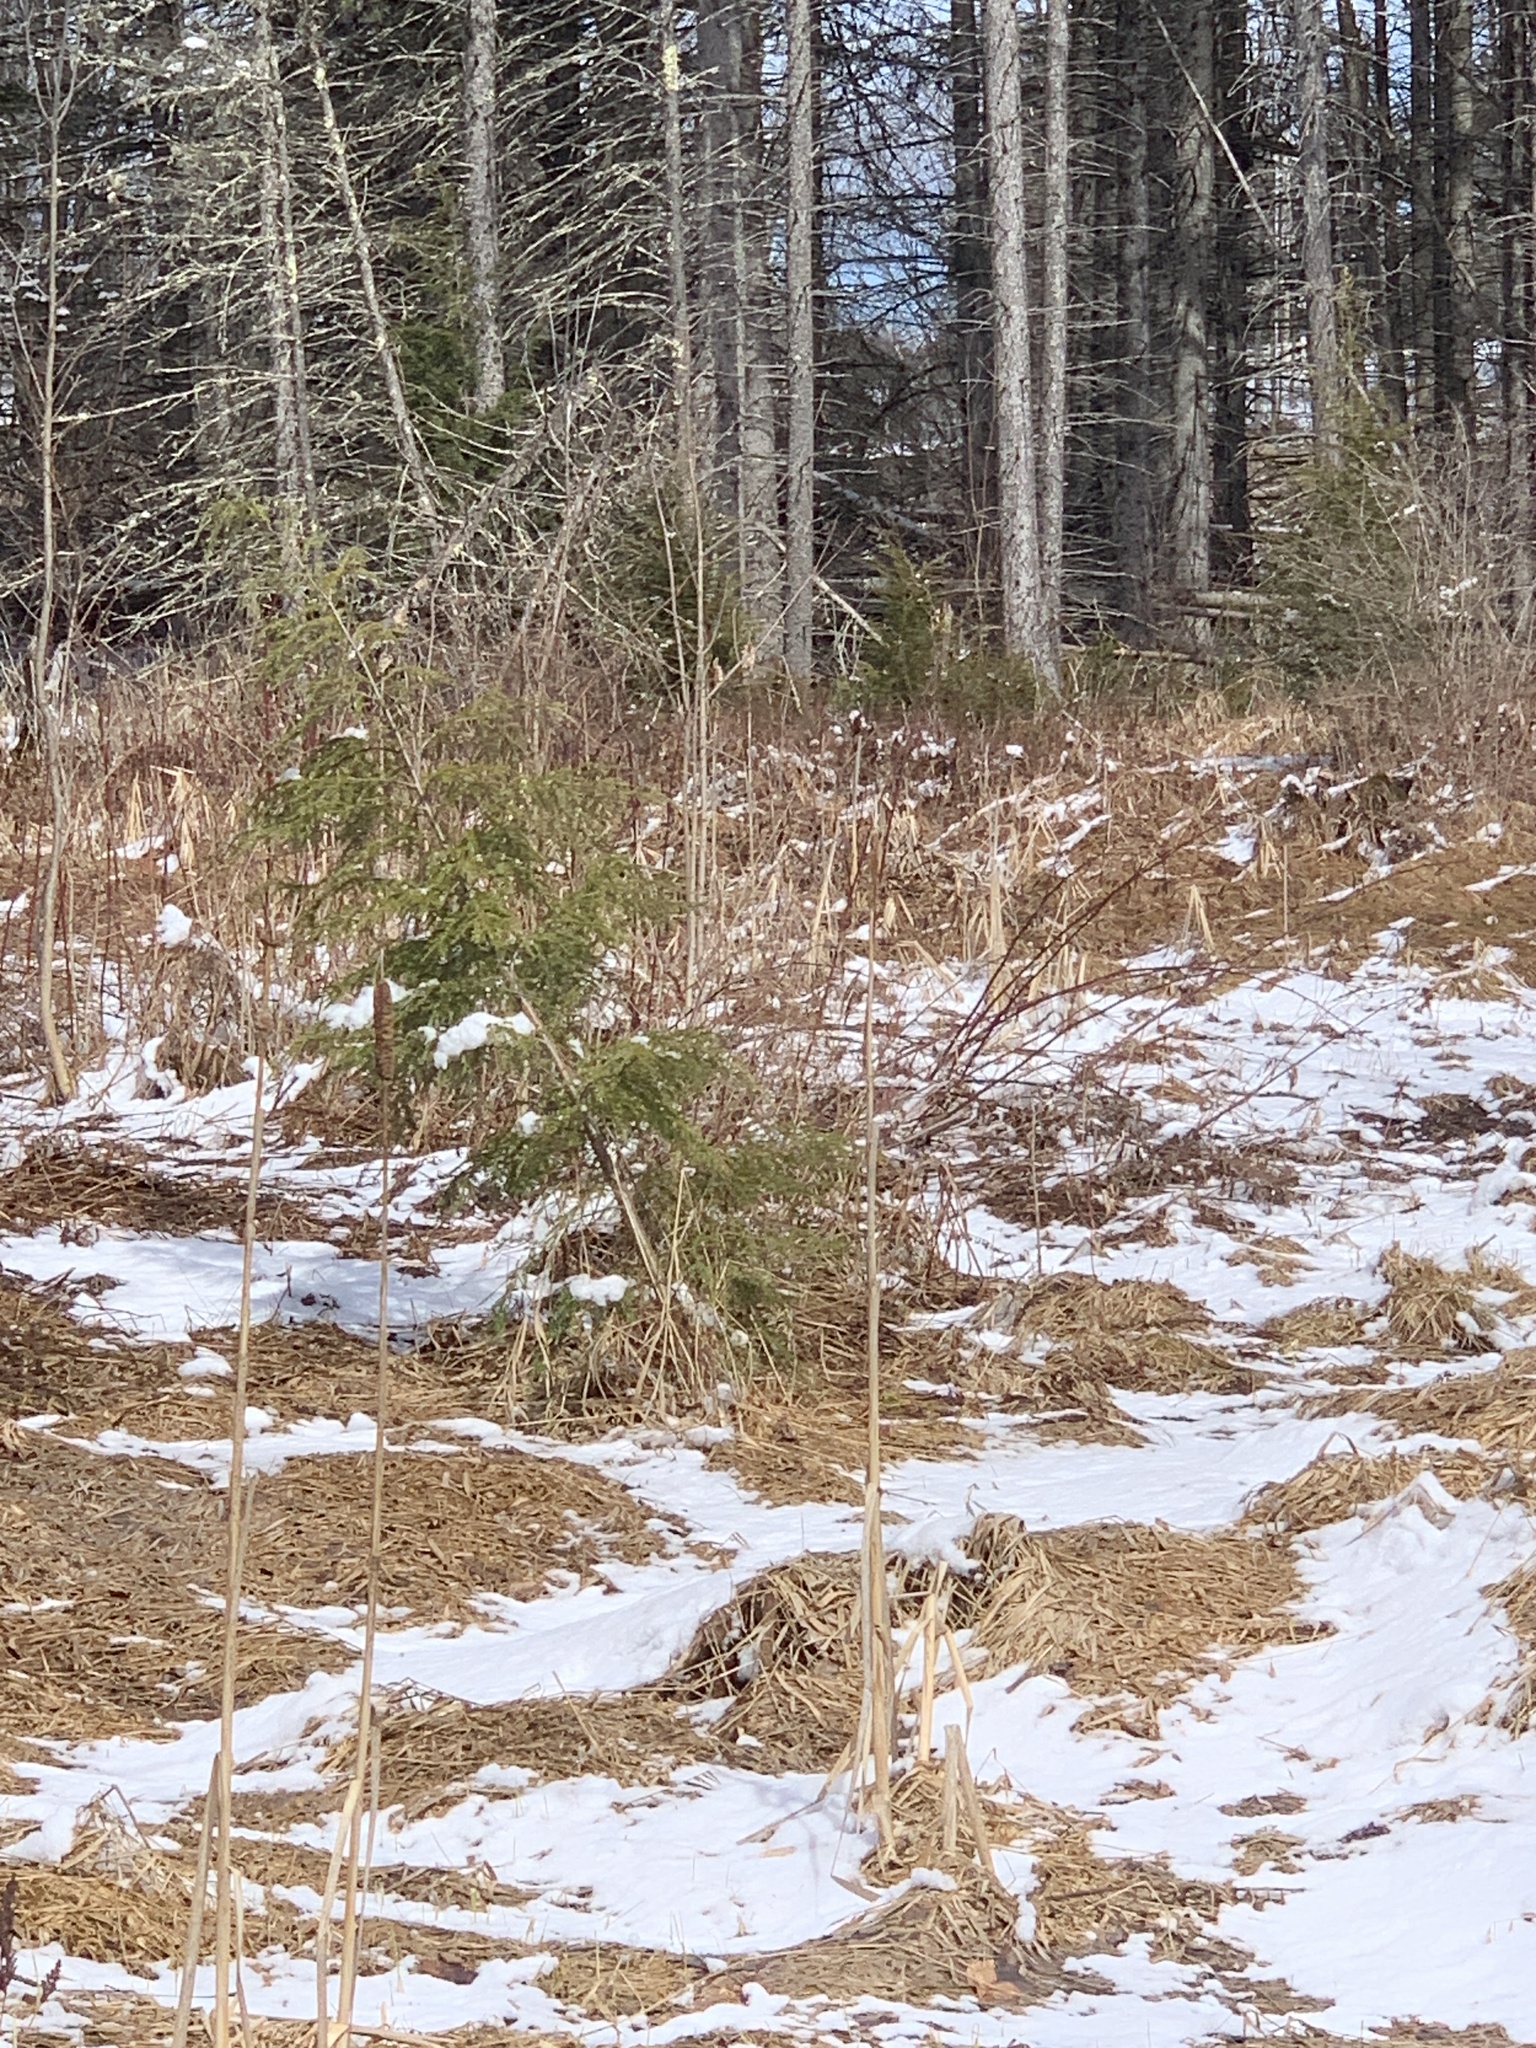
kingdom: Plantae
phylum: Tracheophyta
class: Liliopsida
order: Poales
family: Typhaceae
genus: Typha
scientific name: Typha latifolia
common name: Broadleaf cattail
